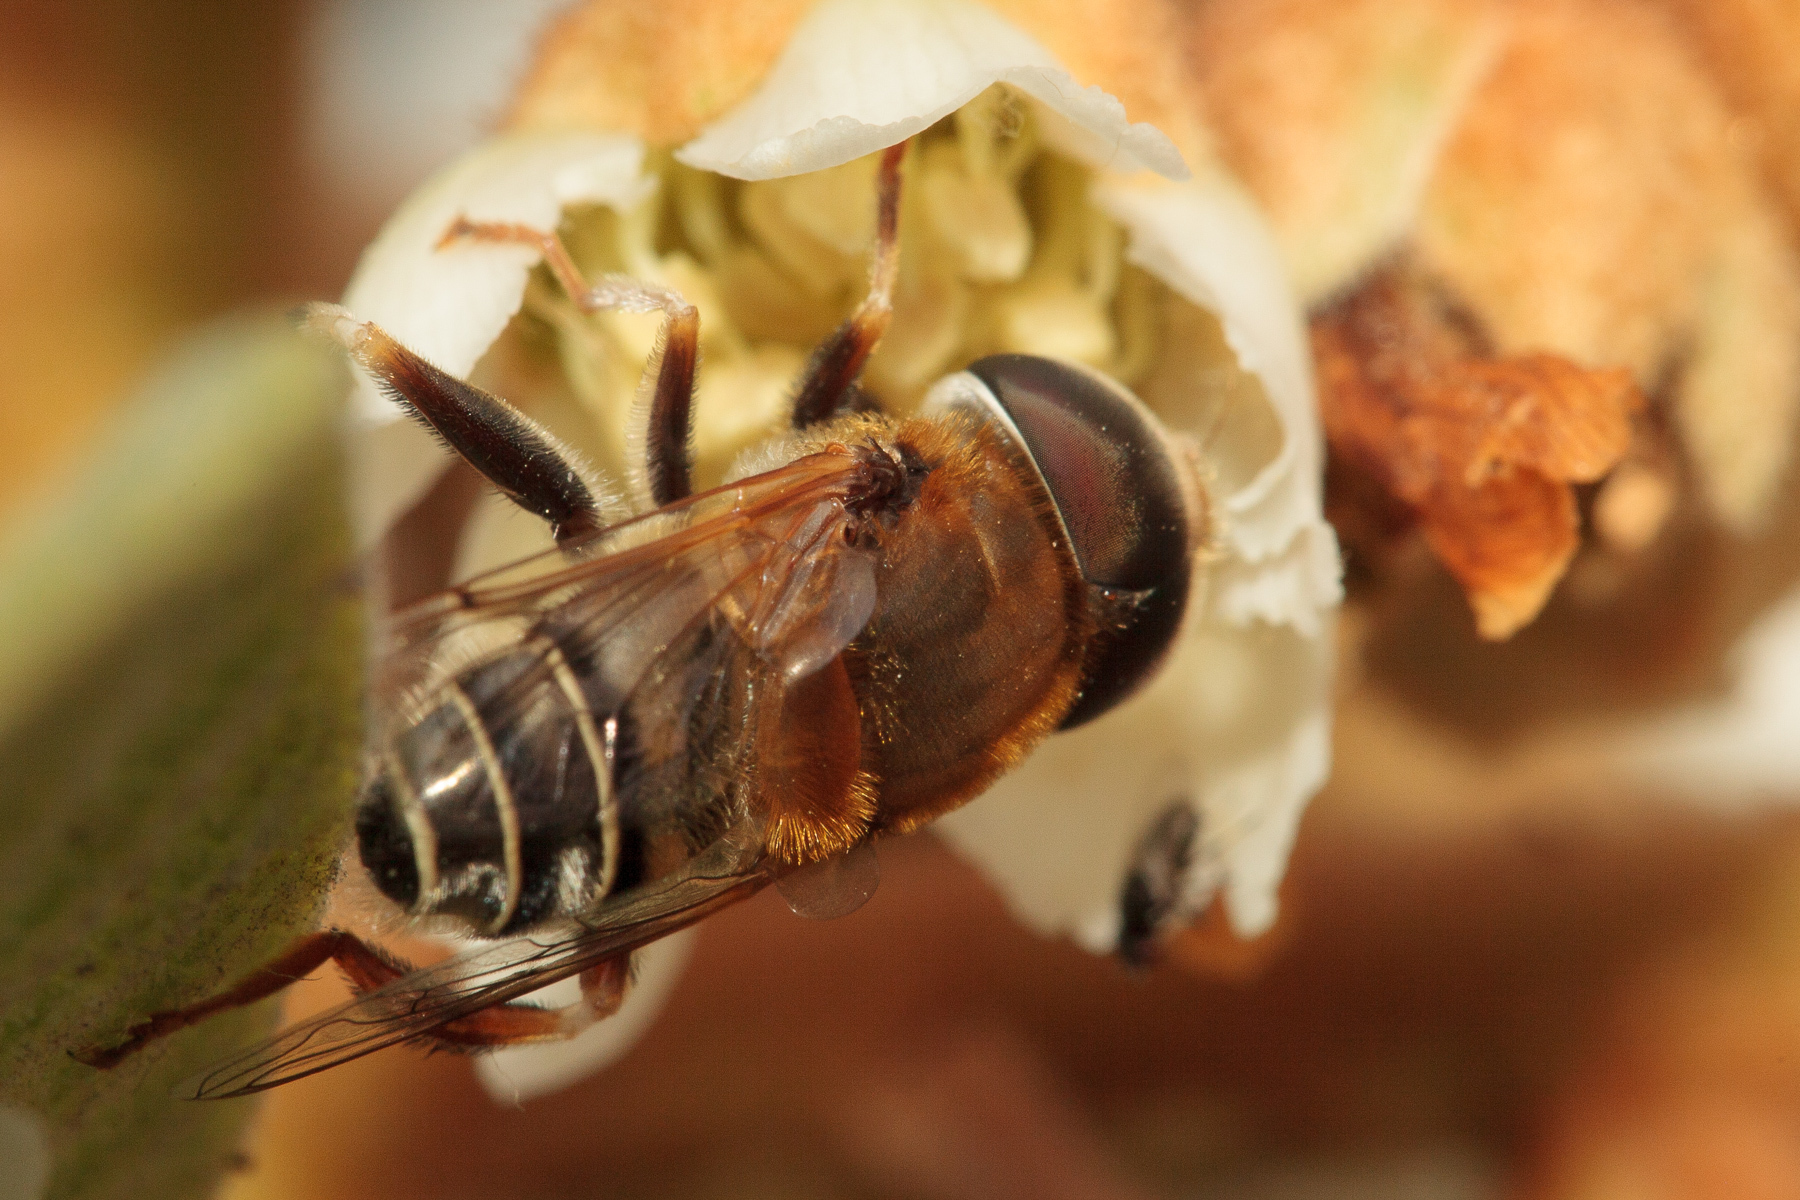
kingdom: Animalia
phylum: Arthropoda
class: Insecta
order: Diptera
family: Syrphidae
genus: Palpada
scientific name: Palpada mexicana
